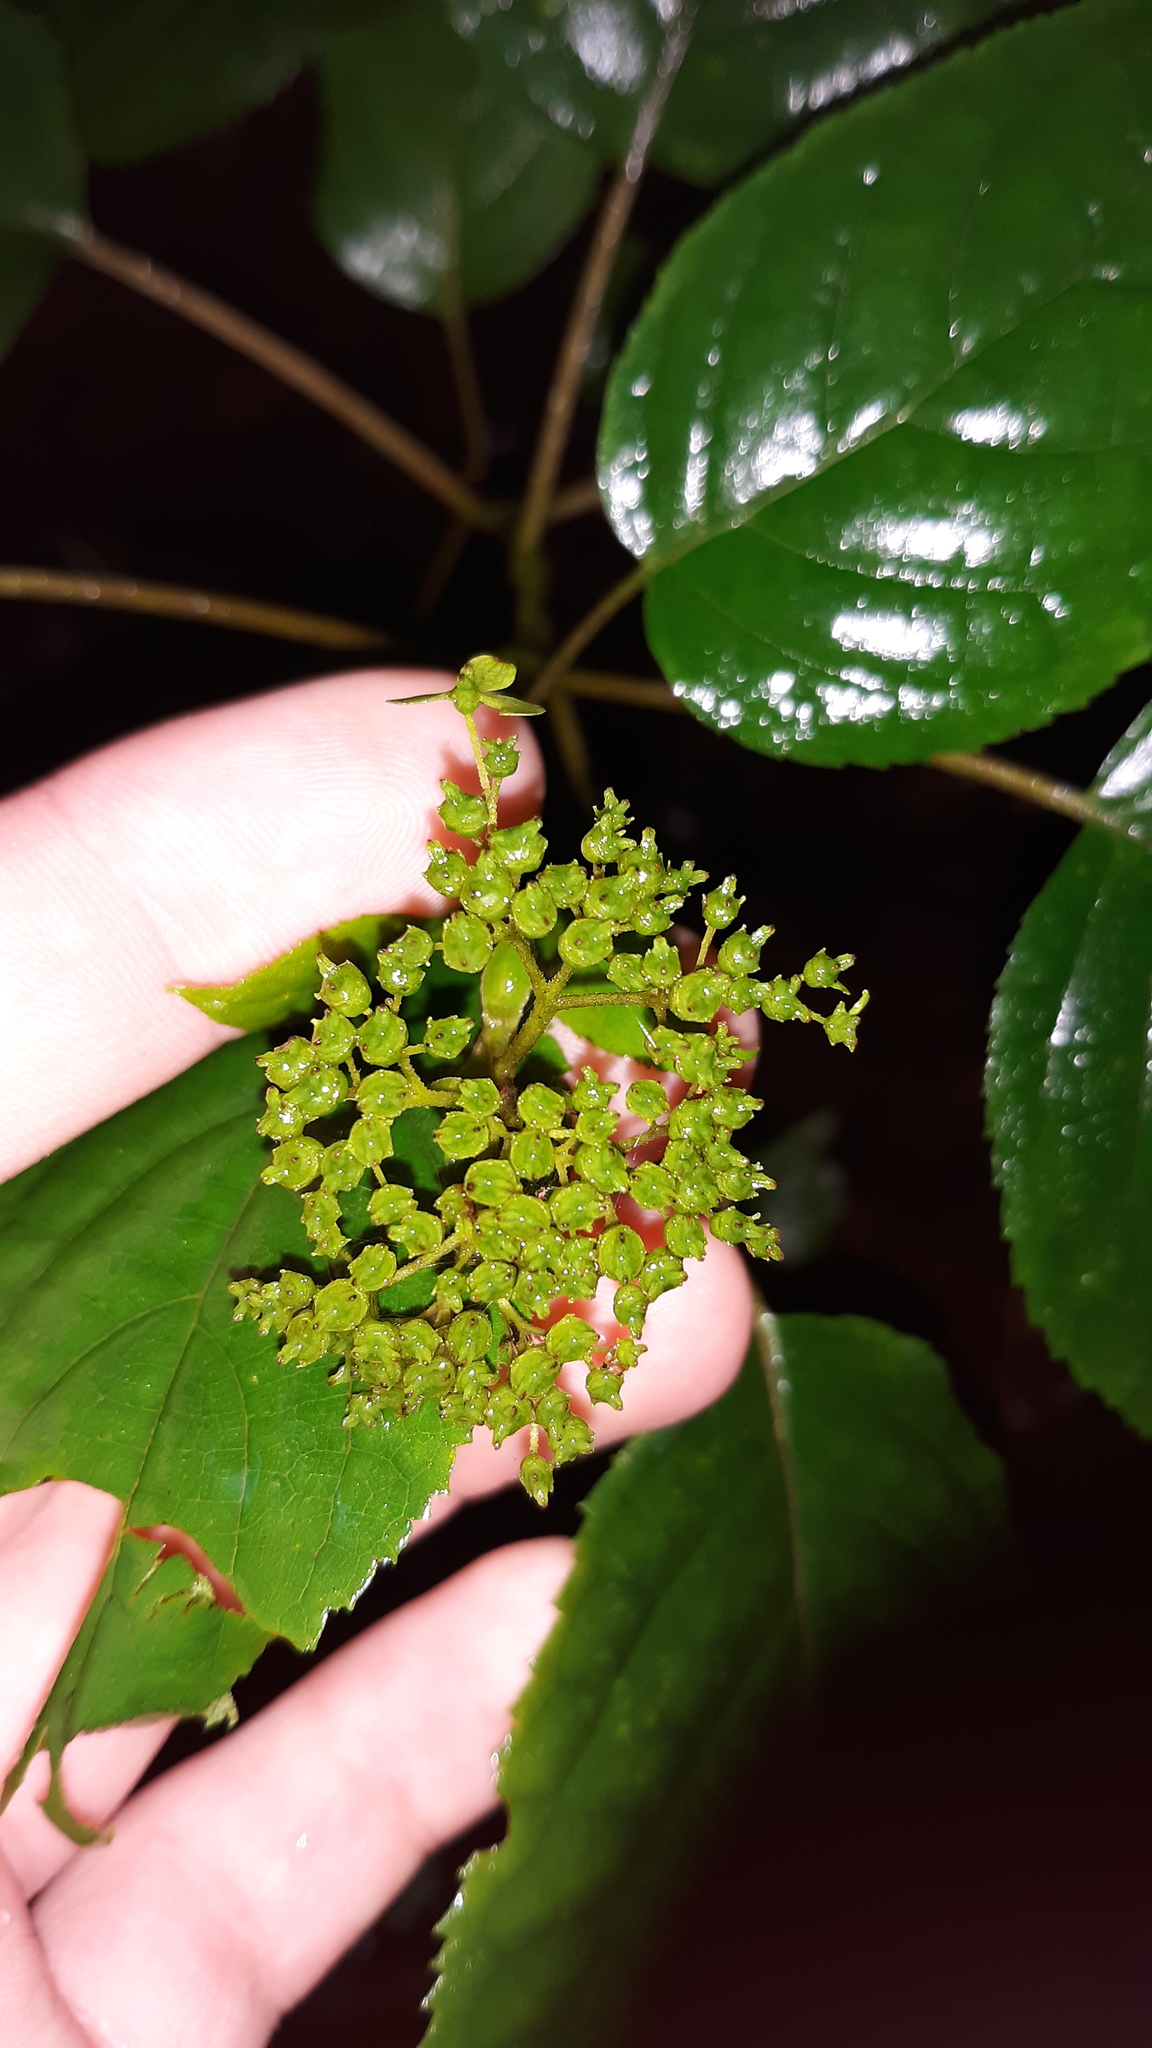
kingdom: Plantae
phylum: Tracheophyta
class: Magnoliopsida
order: Cornales
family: Hydrangeaceae
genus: Hydrangea
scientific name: Hydrangea arborescens
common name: Sevenbark
